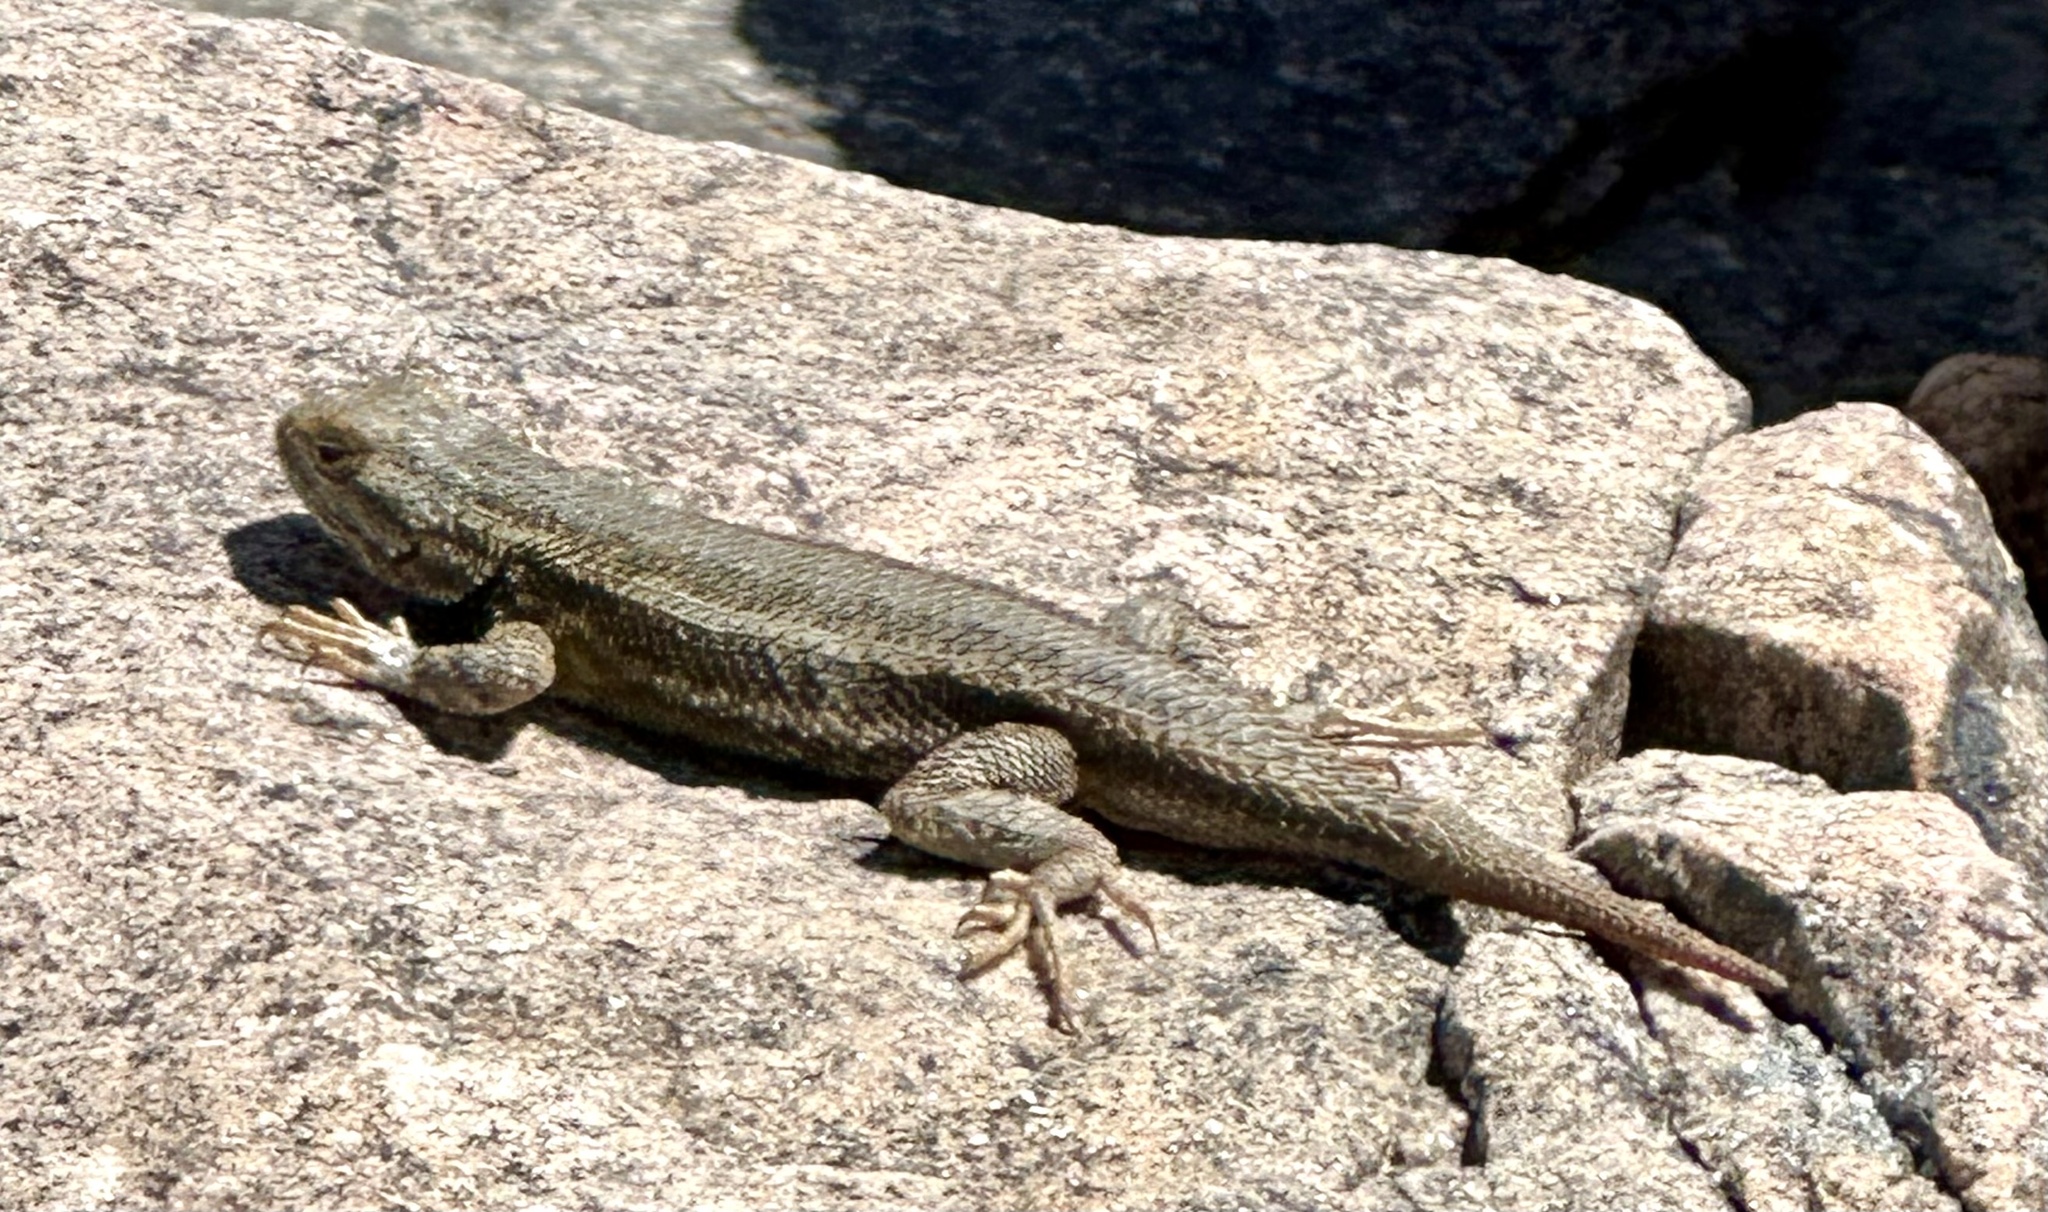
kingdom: Animalia
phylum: Chordata
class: Squamata
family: Phrynosomatidae
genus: Sceloporus
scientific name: Sceloporus
